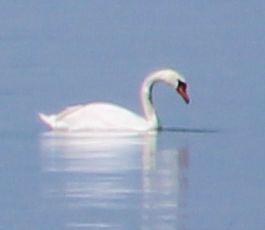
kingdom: Animalia
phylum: Chordata
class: Aves
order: Anseriformes
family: Anatidae
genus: Cygnus
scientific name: Cygnus olor
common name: Mute swan
